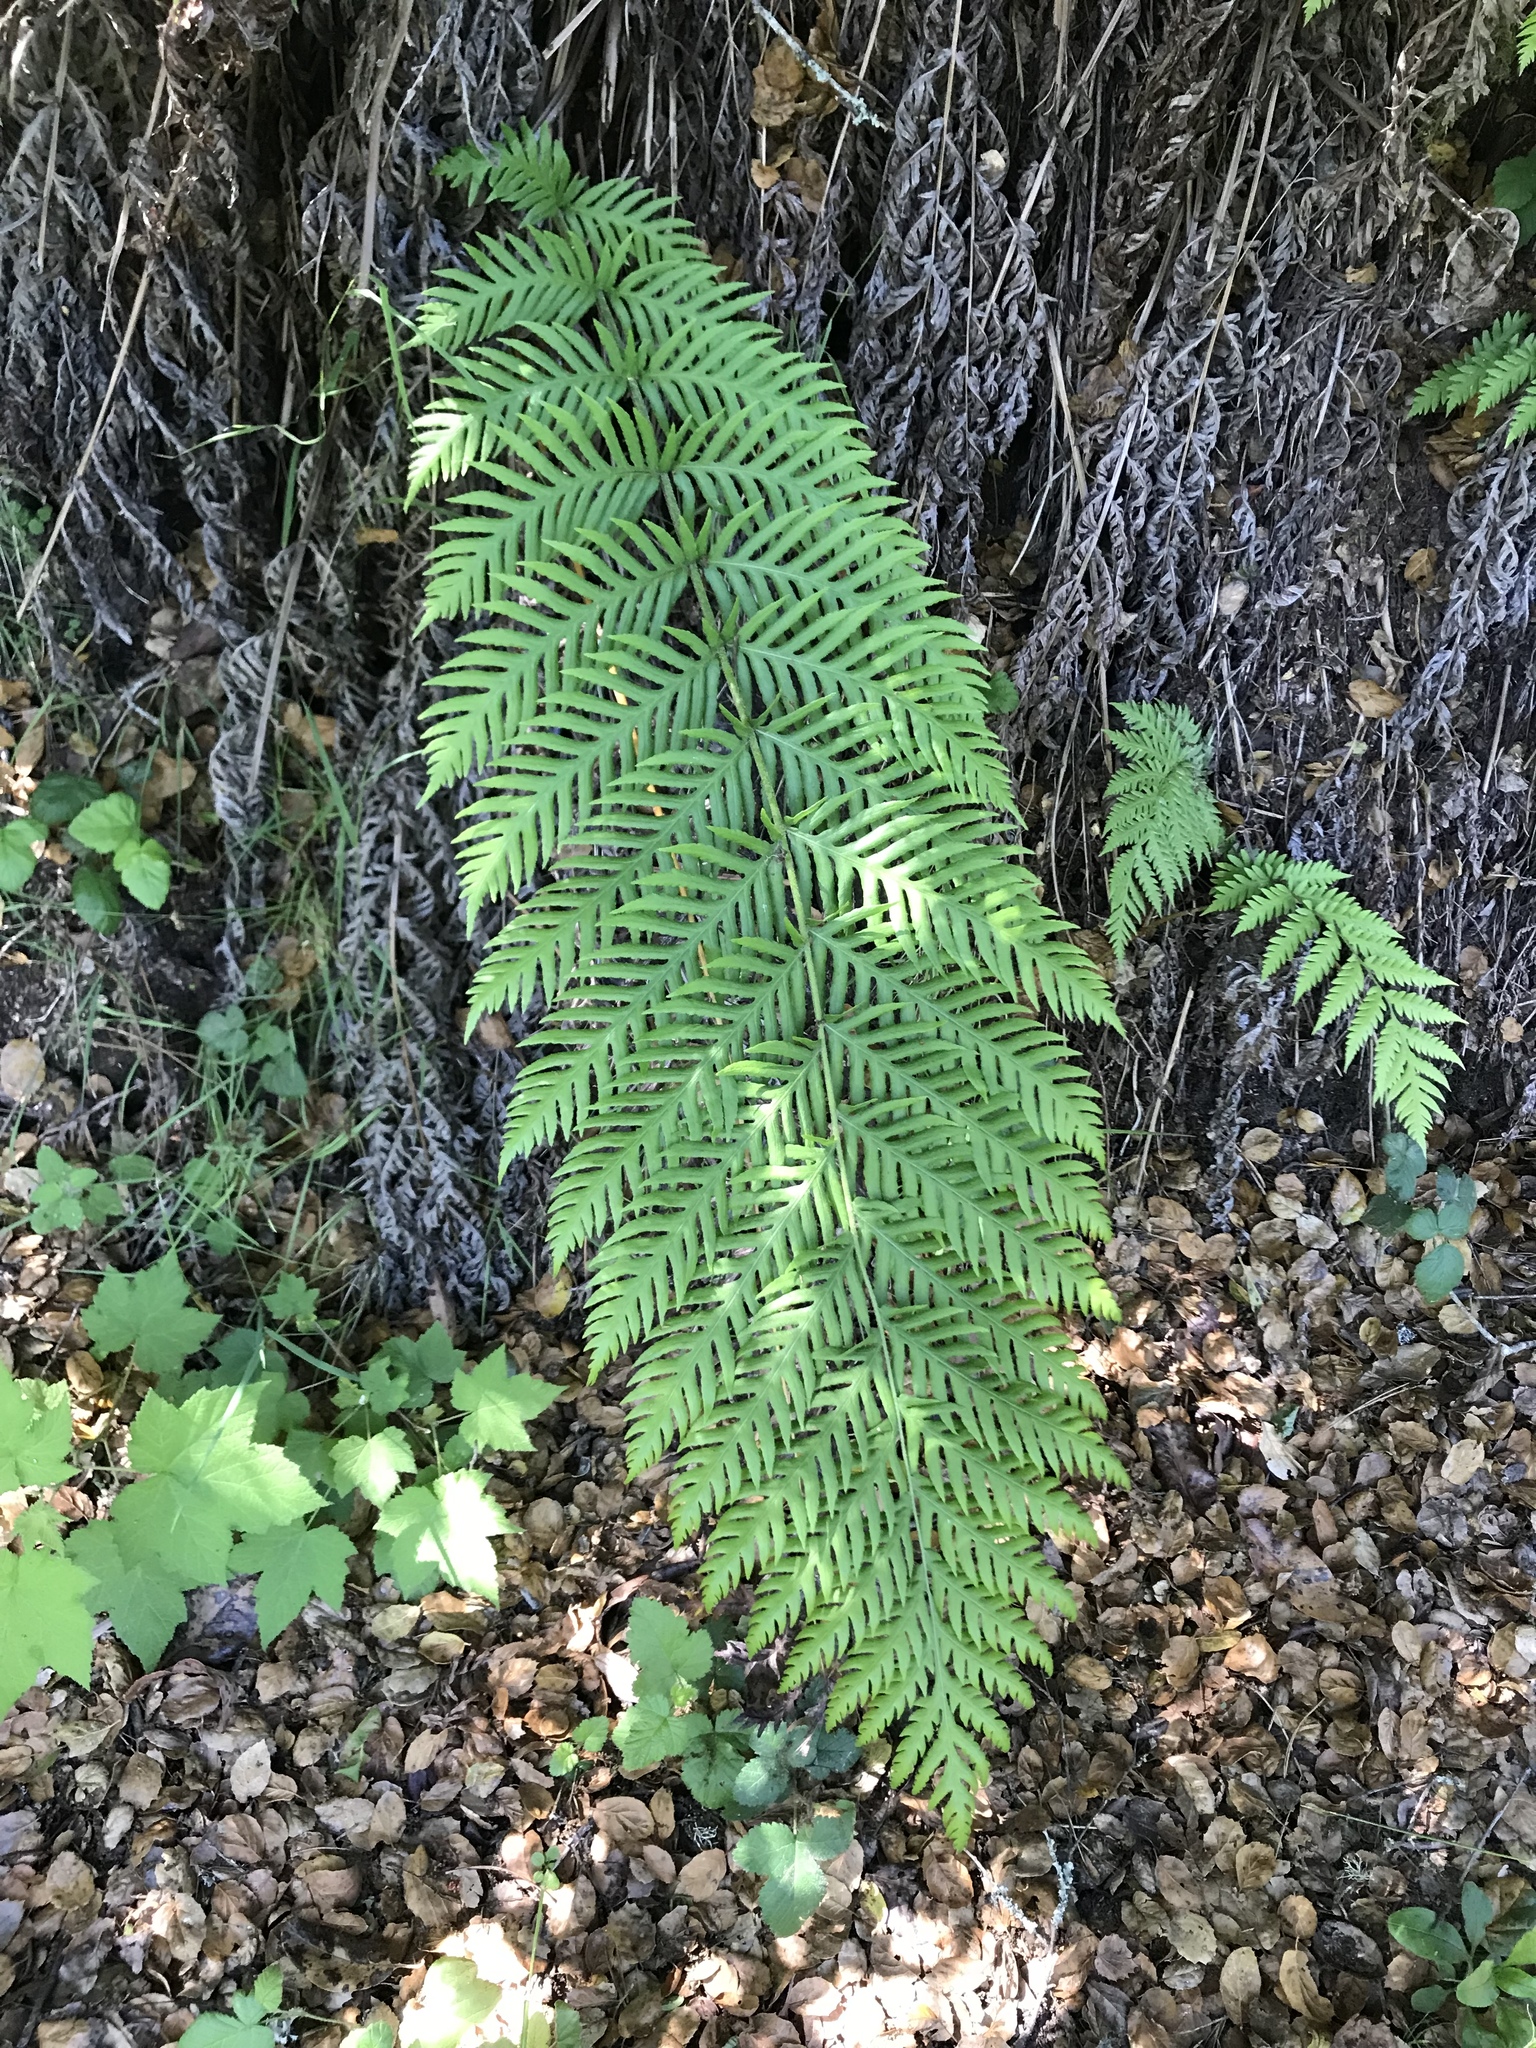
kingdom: Plantae
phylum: Tracheophyta
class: Polypodiopsida
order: Polypodiales
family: Blechnaceae
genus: Woodwardia
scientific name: Woodwardia fimbriata
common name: Giant chain fern
